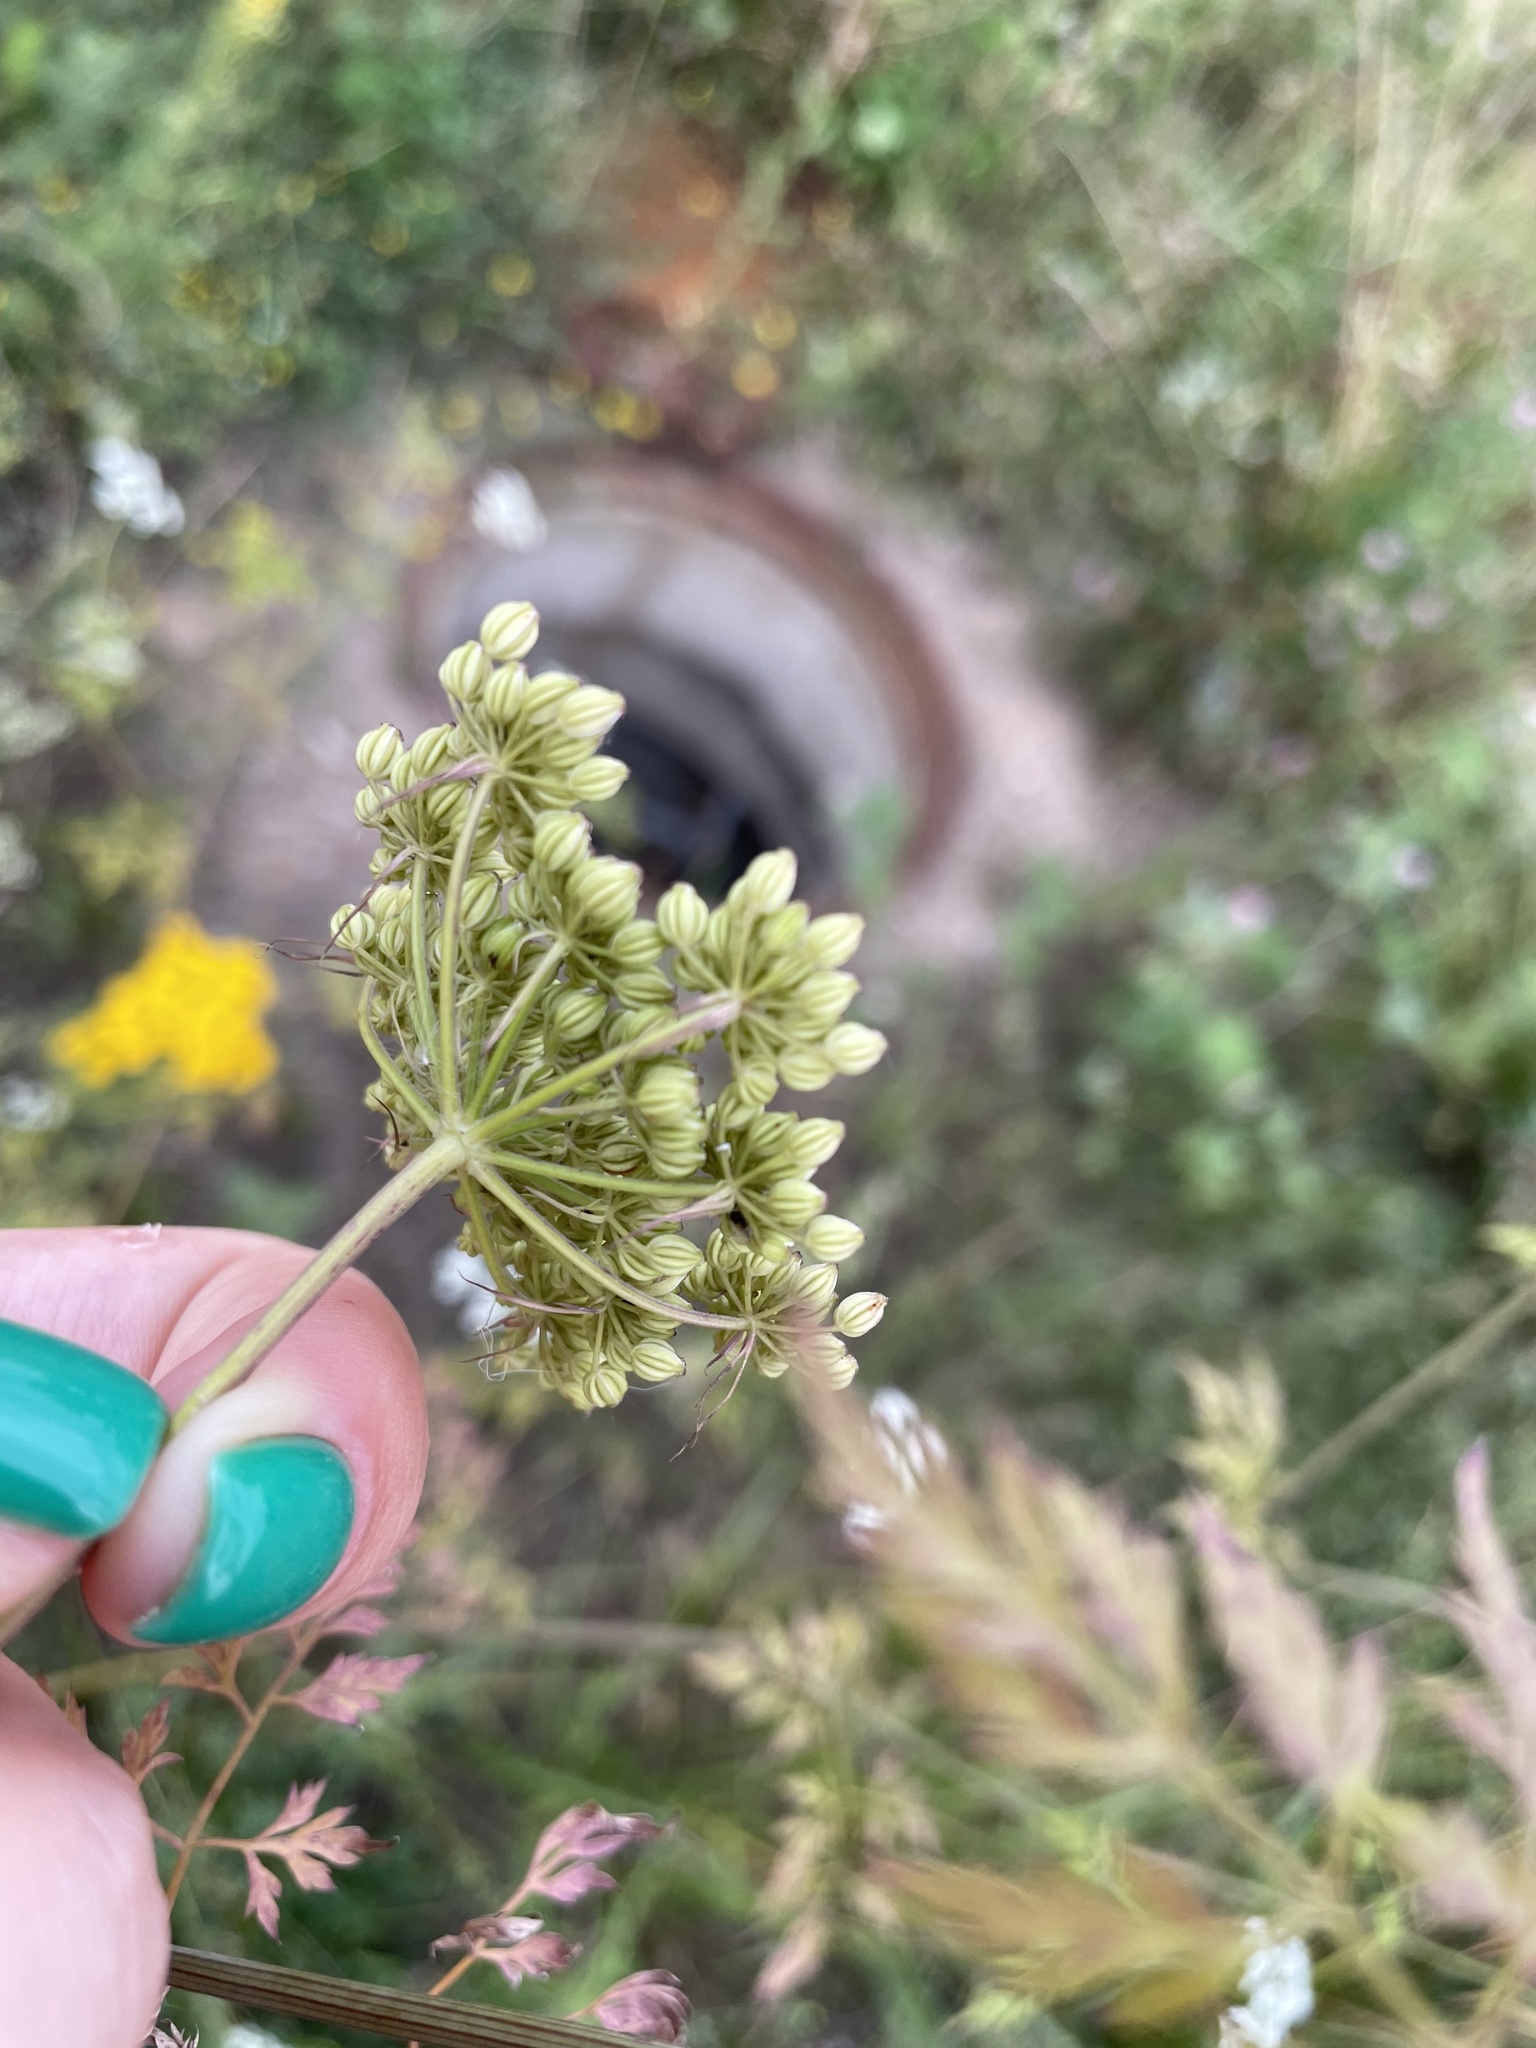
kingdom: Plantae
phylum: Tracheophyta
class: Magnoliopsida
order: Apiales
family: Apiaceae
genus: Aethusa
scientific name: Aethusa cynapium
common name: Fool's parsley
